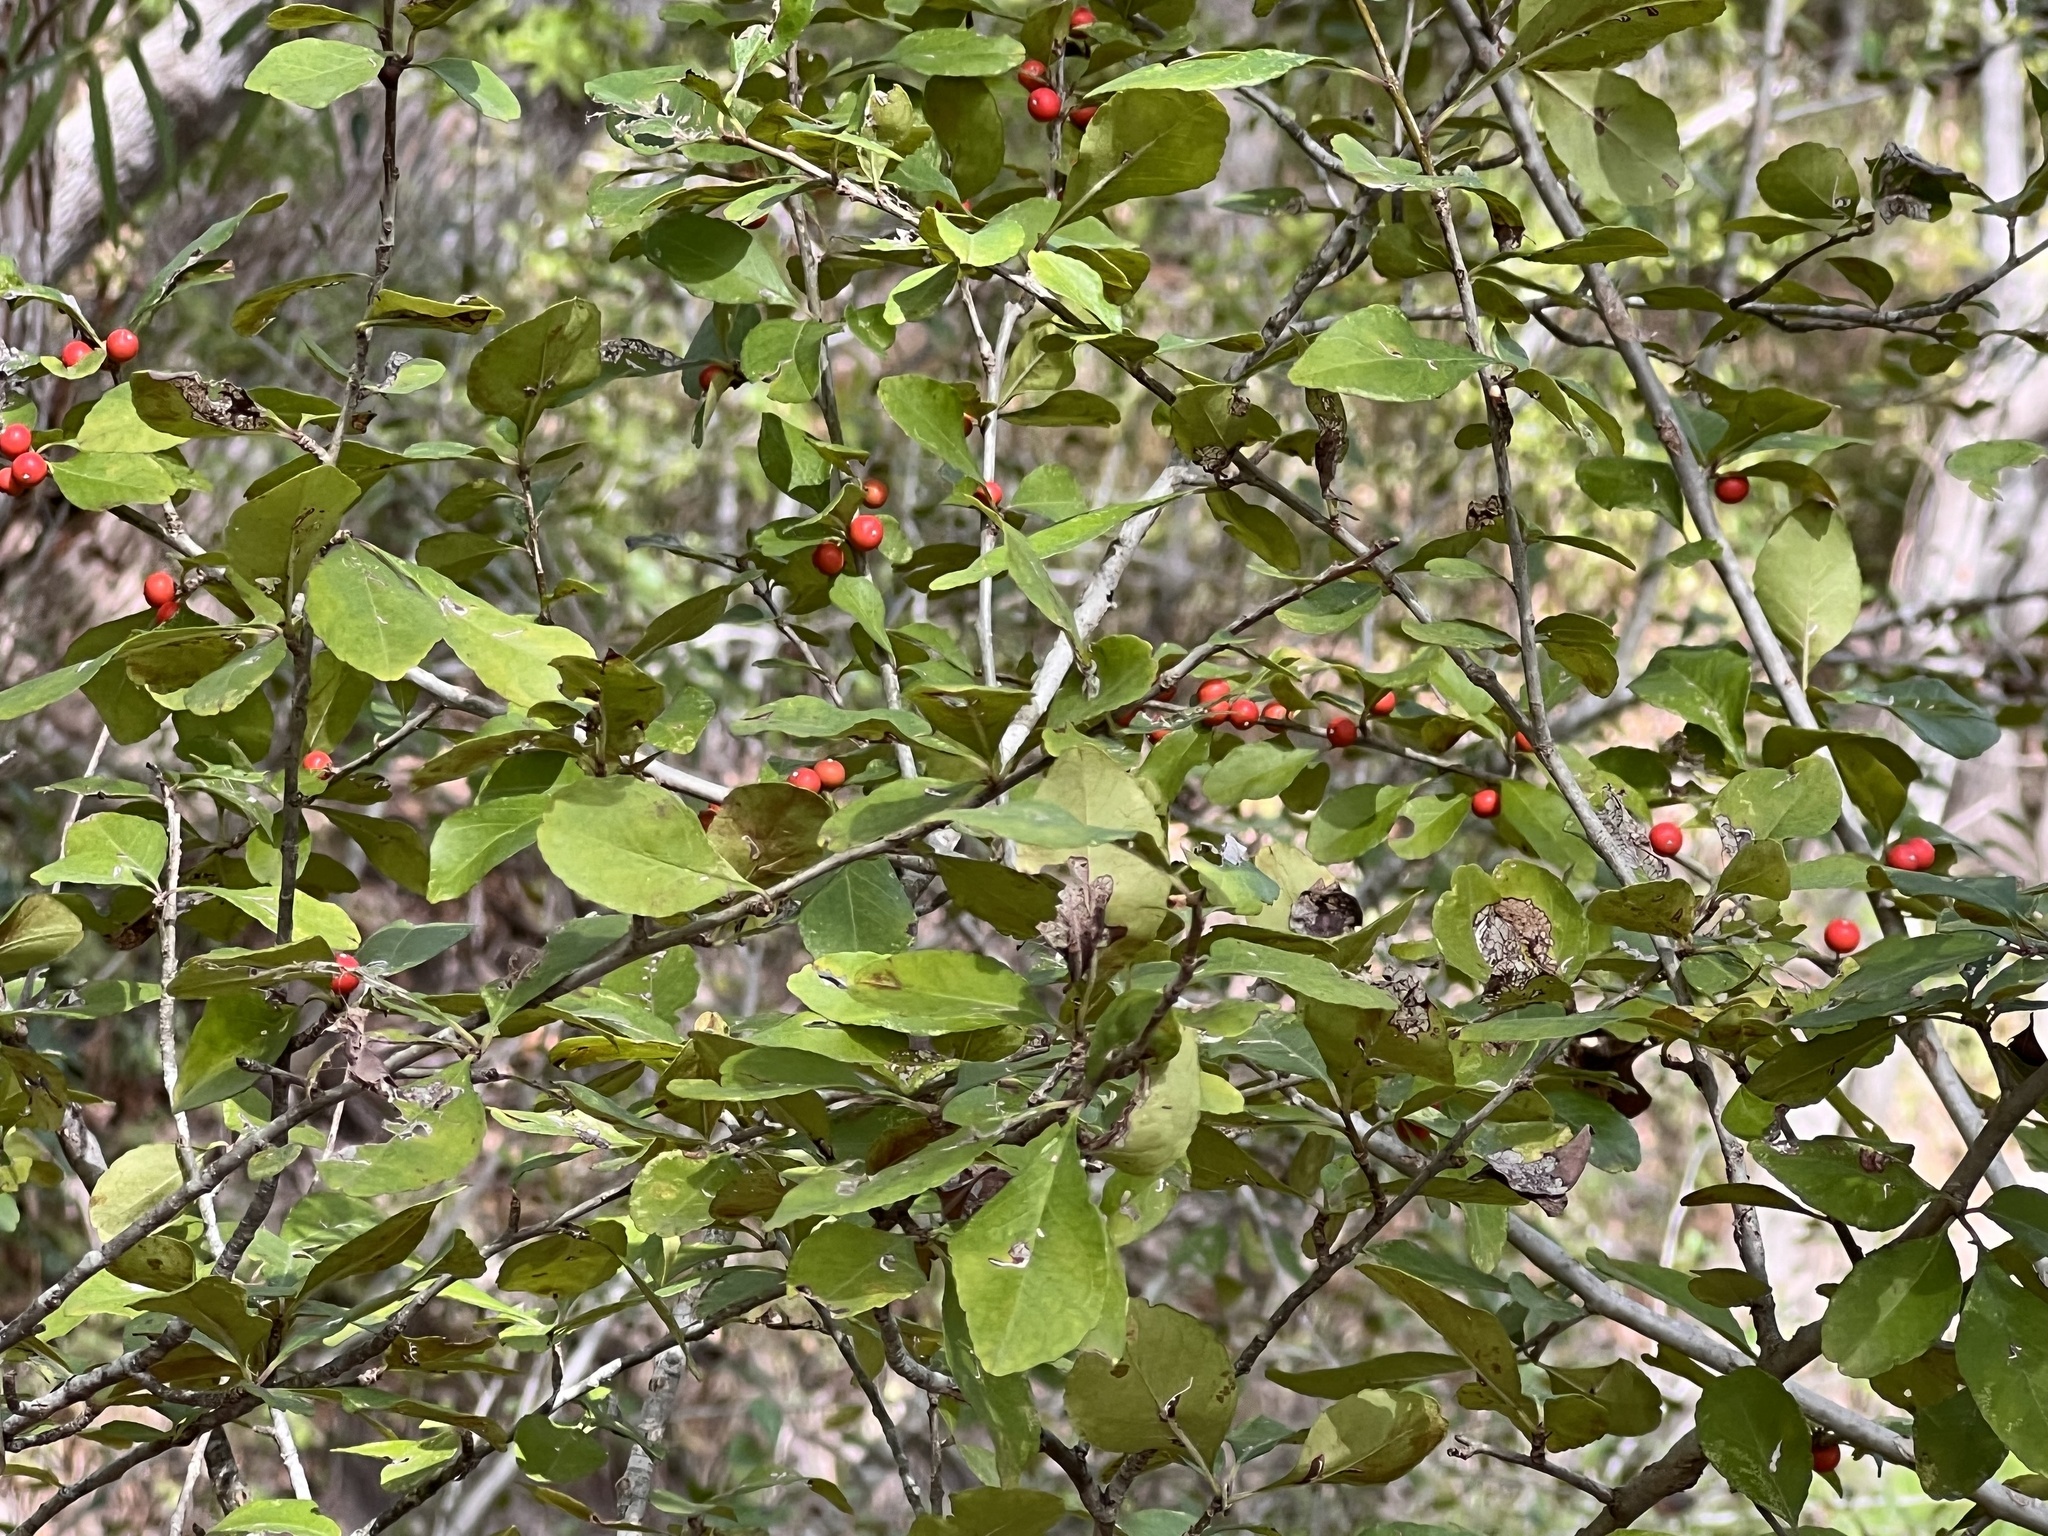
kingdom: Plantae
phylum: Tracheophyta
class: Magnoliopsida
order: Aquifoliales
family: Aquifoliaceae
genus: Ilex
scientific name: Ilex decidua
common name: Possum-haw
